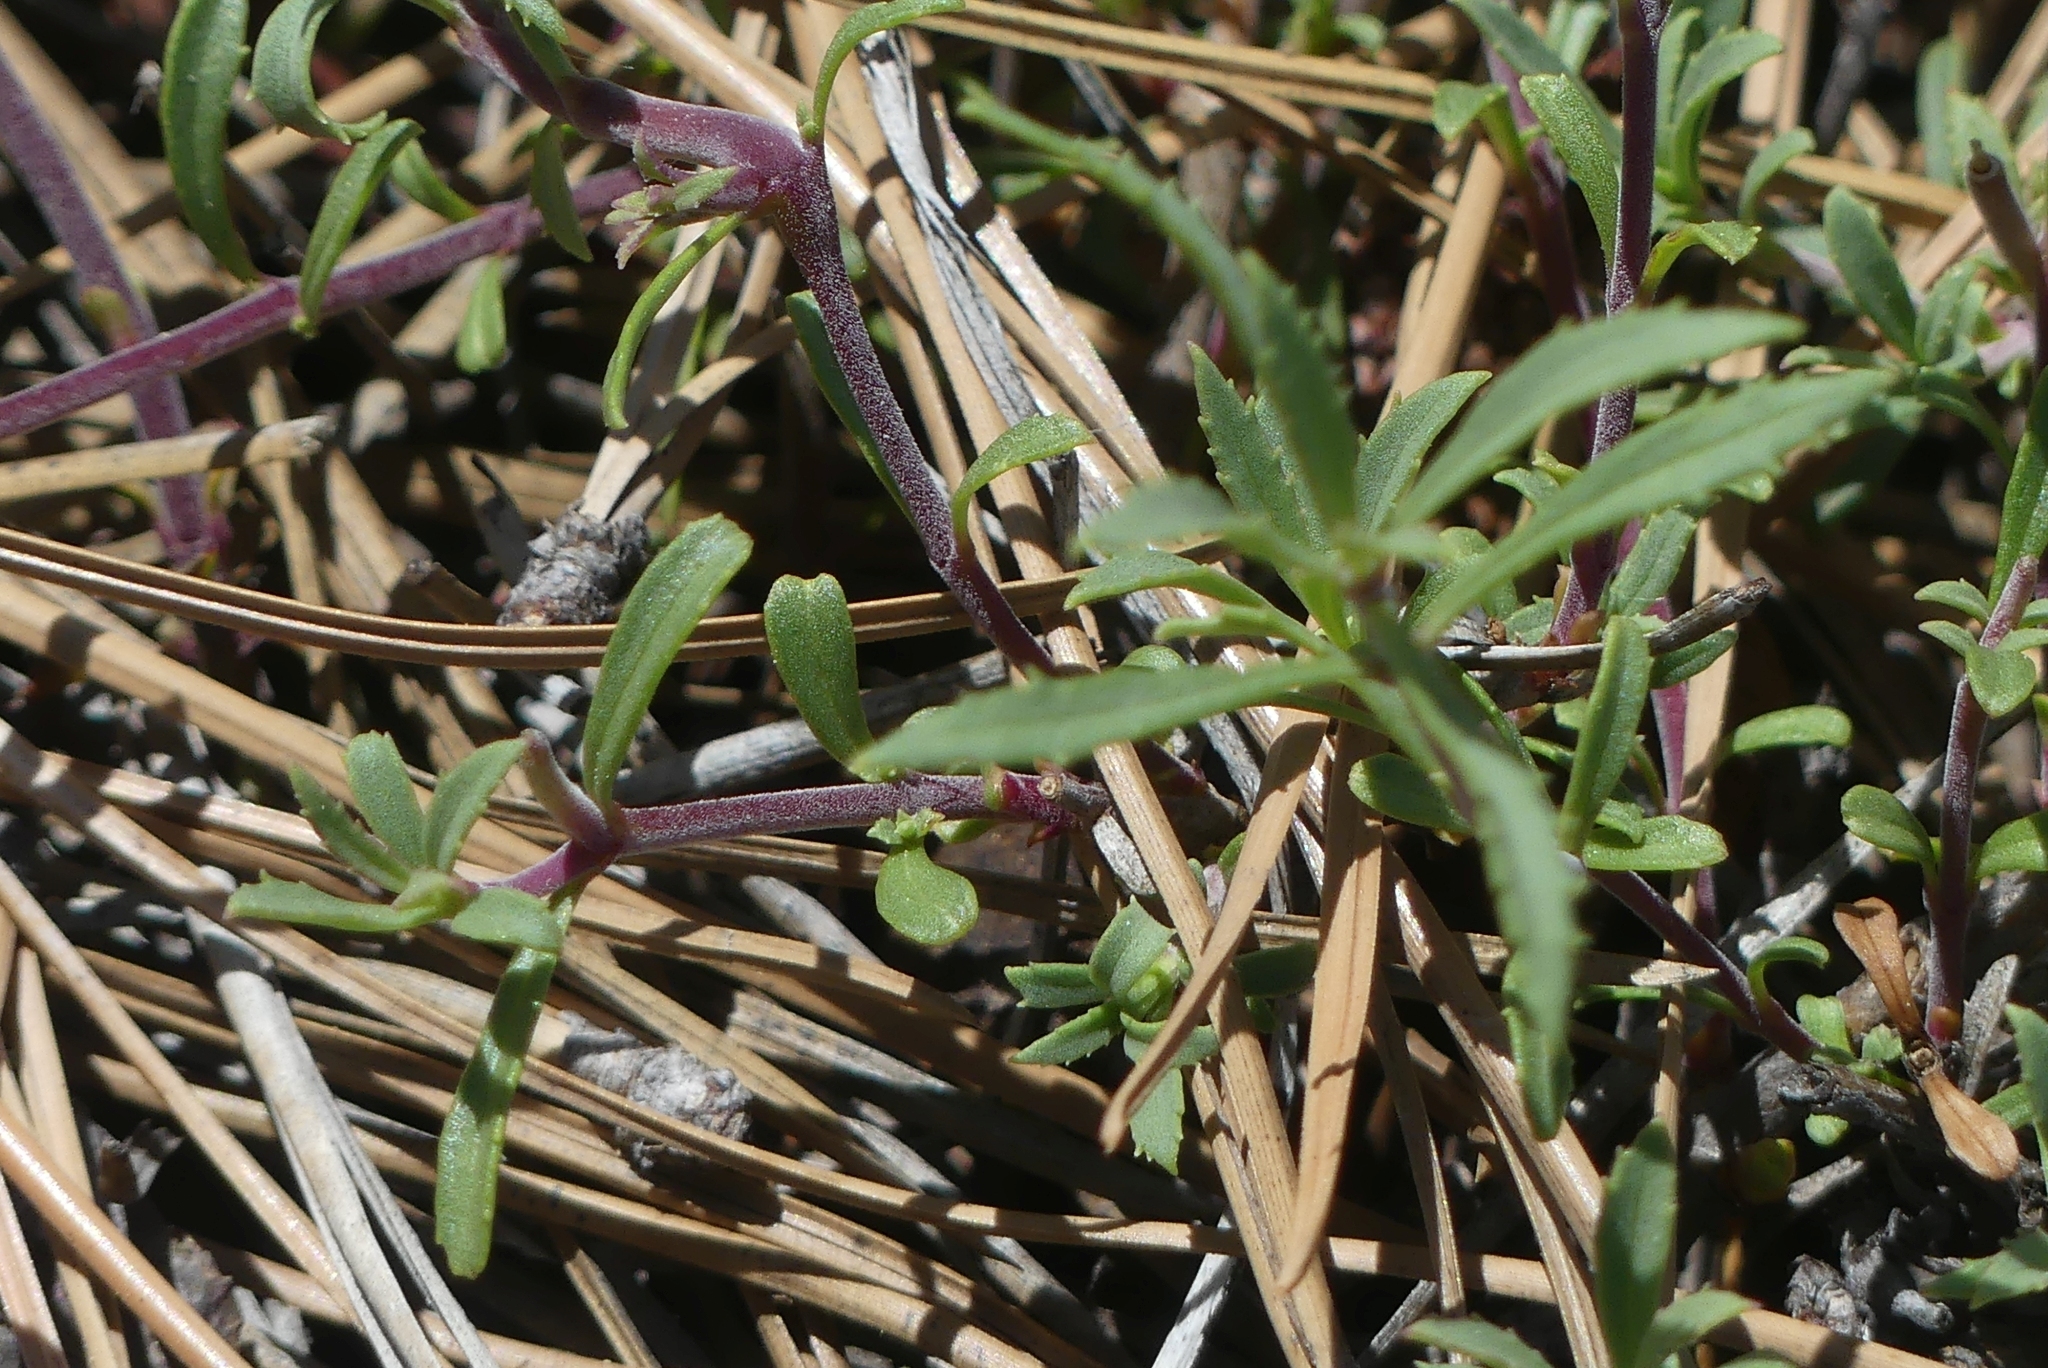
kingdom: Plantae
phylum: Tracheophyta
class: Magnoliopsida
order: Lamiales
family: Plantaginaceae
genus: Penstemon
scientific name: Penstemon fruticosus
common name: Bush penstemon
